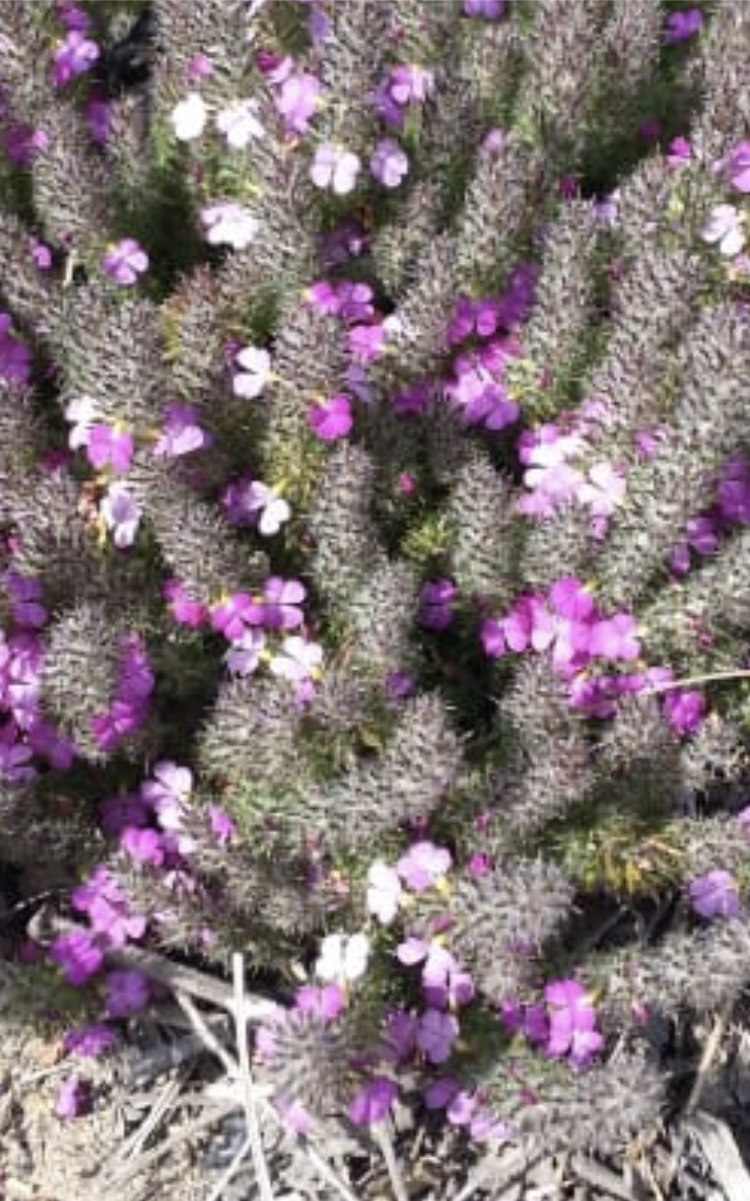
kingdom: Plantae
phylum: Tracheophyta
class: Magnoliopsida
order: Fabales
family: Polygalaceae
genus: Muraltia
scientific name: Muraltia ciliaris
